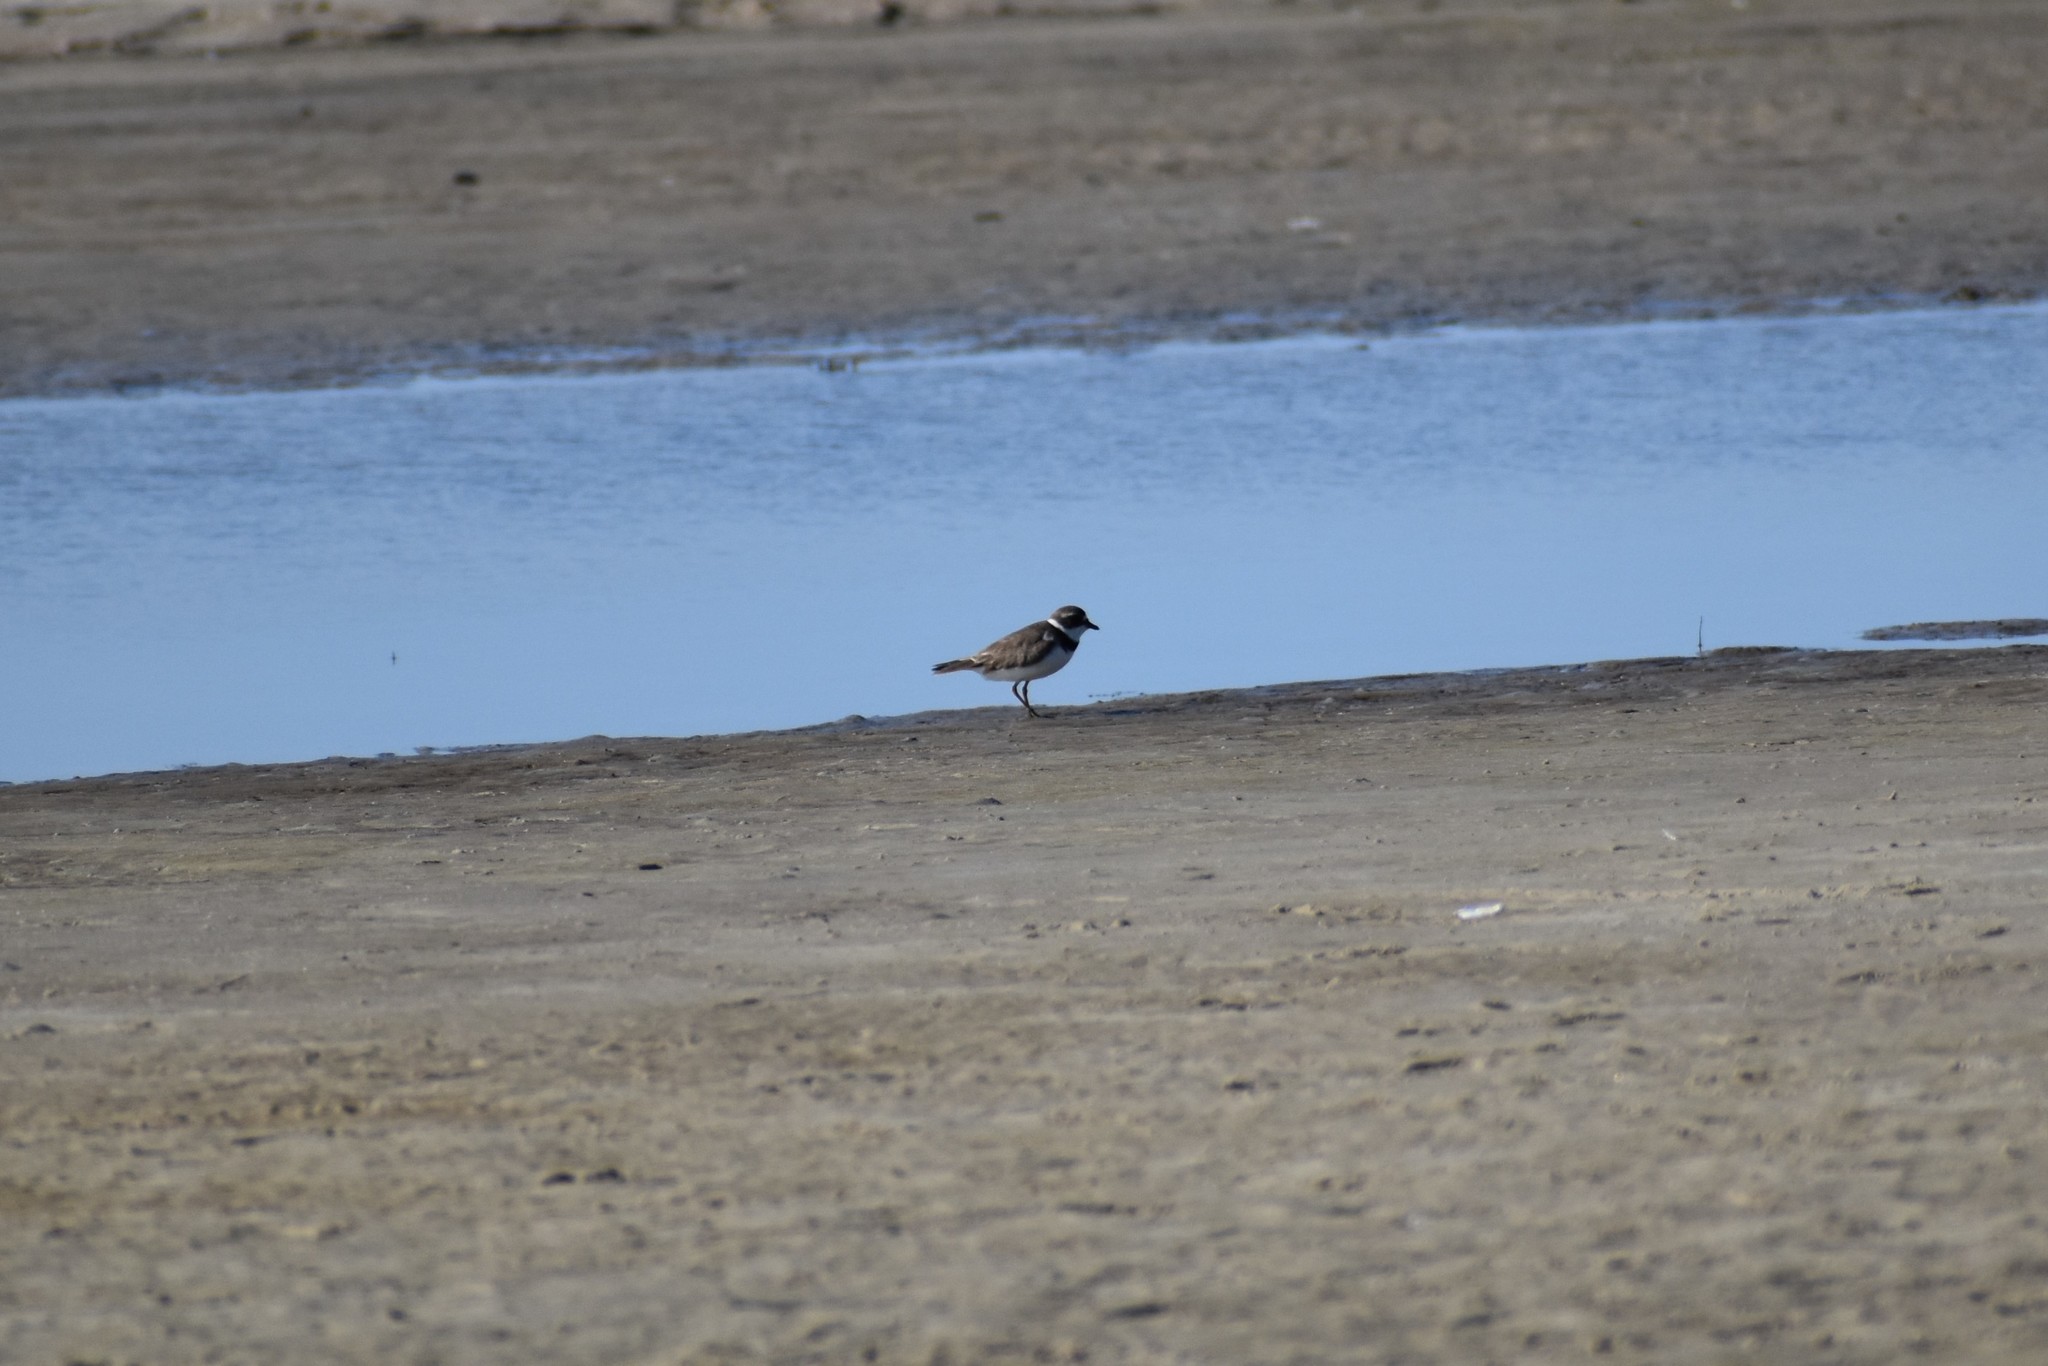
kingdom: Animalia
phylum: Chordata
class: Aves
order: Charadriiformes
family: Charadriidae
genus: Charadrius
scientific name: Charadrius semipalmatus
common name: Semipalmated plover
